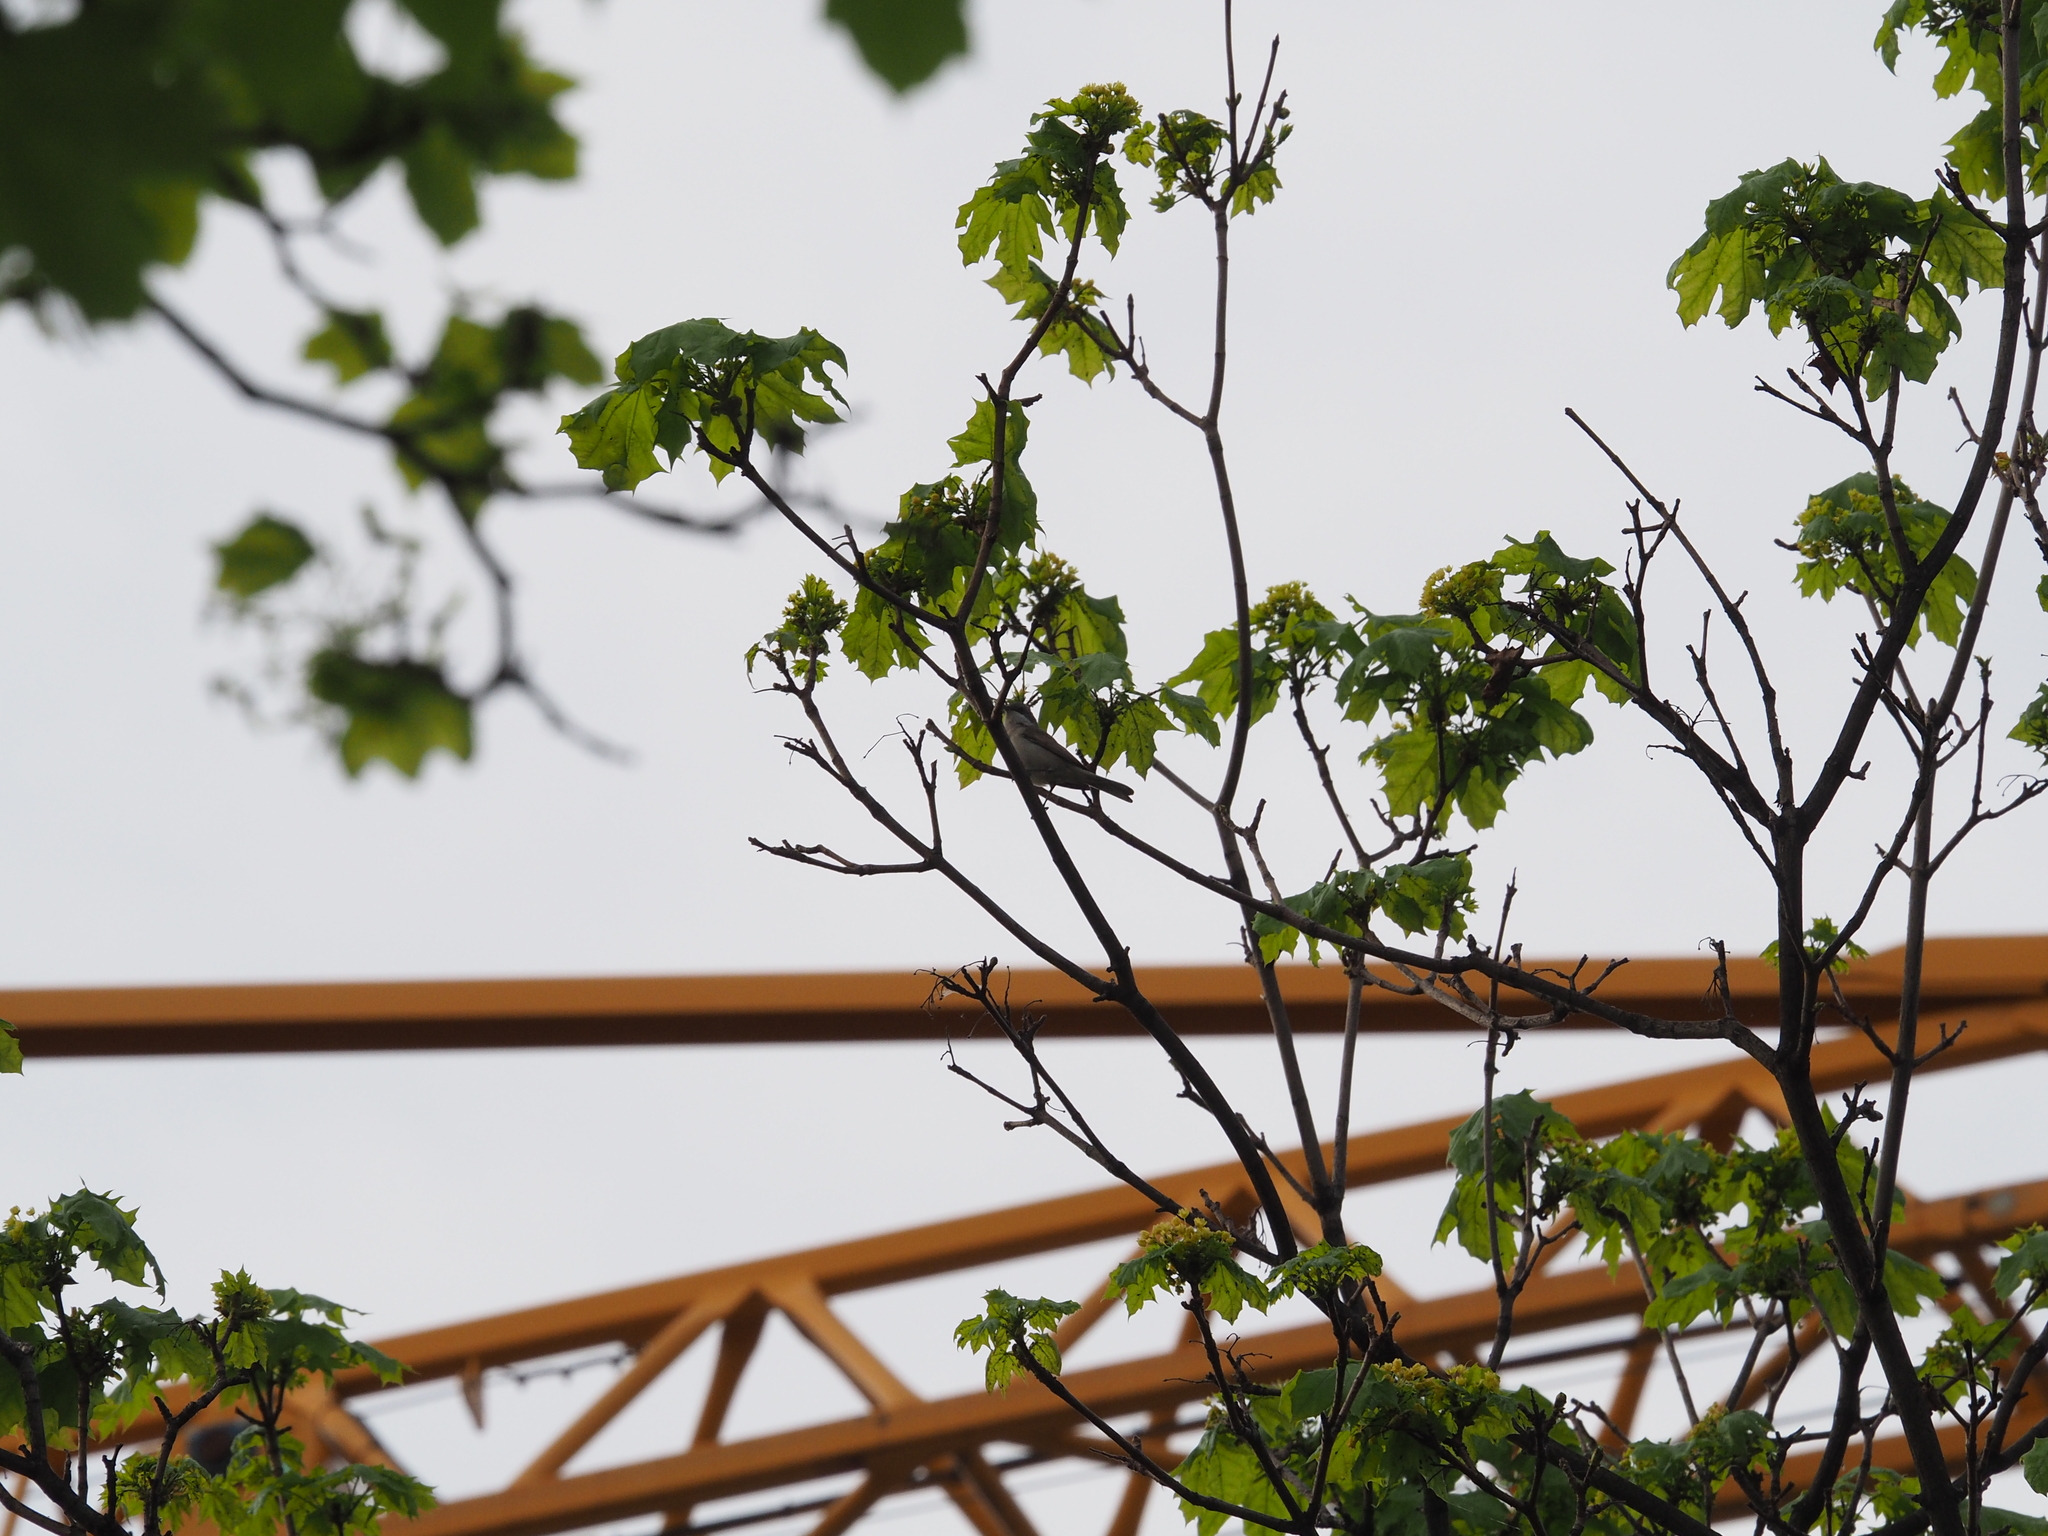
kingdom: Animalia
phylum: Chordata
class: Aves
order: Passeriformes
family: Sylviidae
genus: Sylvia
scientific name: Sylvia curruca
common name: Lesser whitethroat
